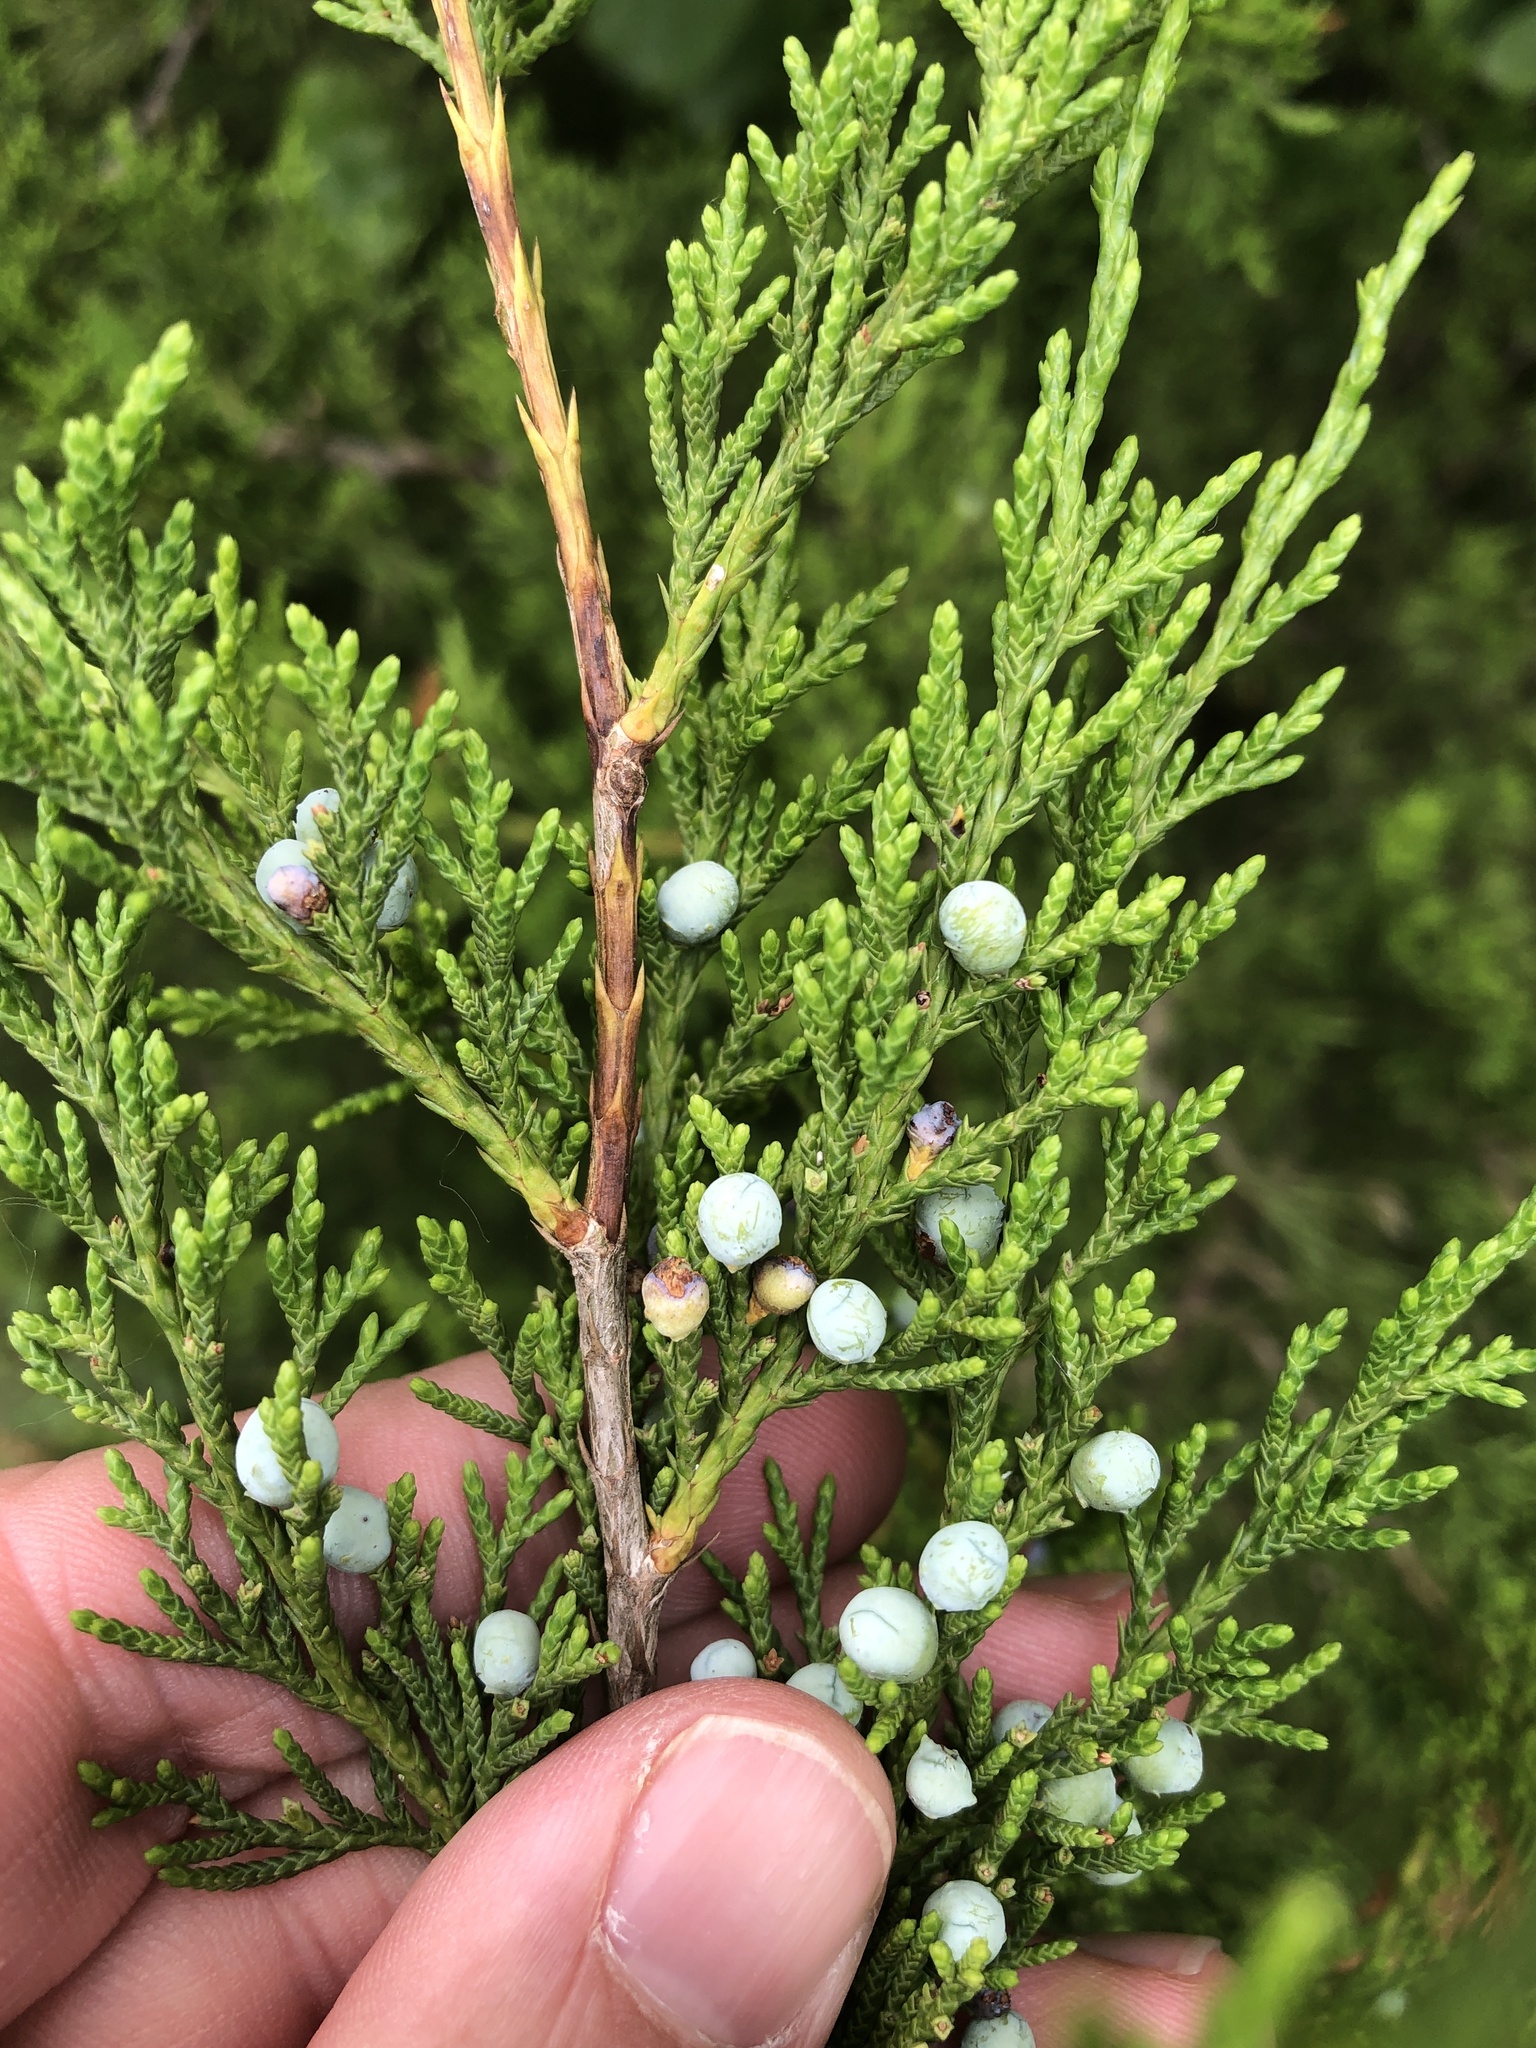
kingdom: Plantae
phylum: Tracheophyta
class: Pinopsida
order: Pinales
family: Cupressaceae
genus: Juniperus
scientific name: Juniperus virginiana
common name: Red juniper
